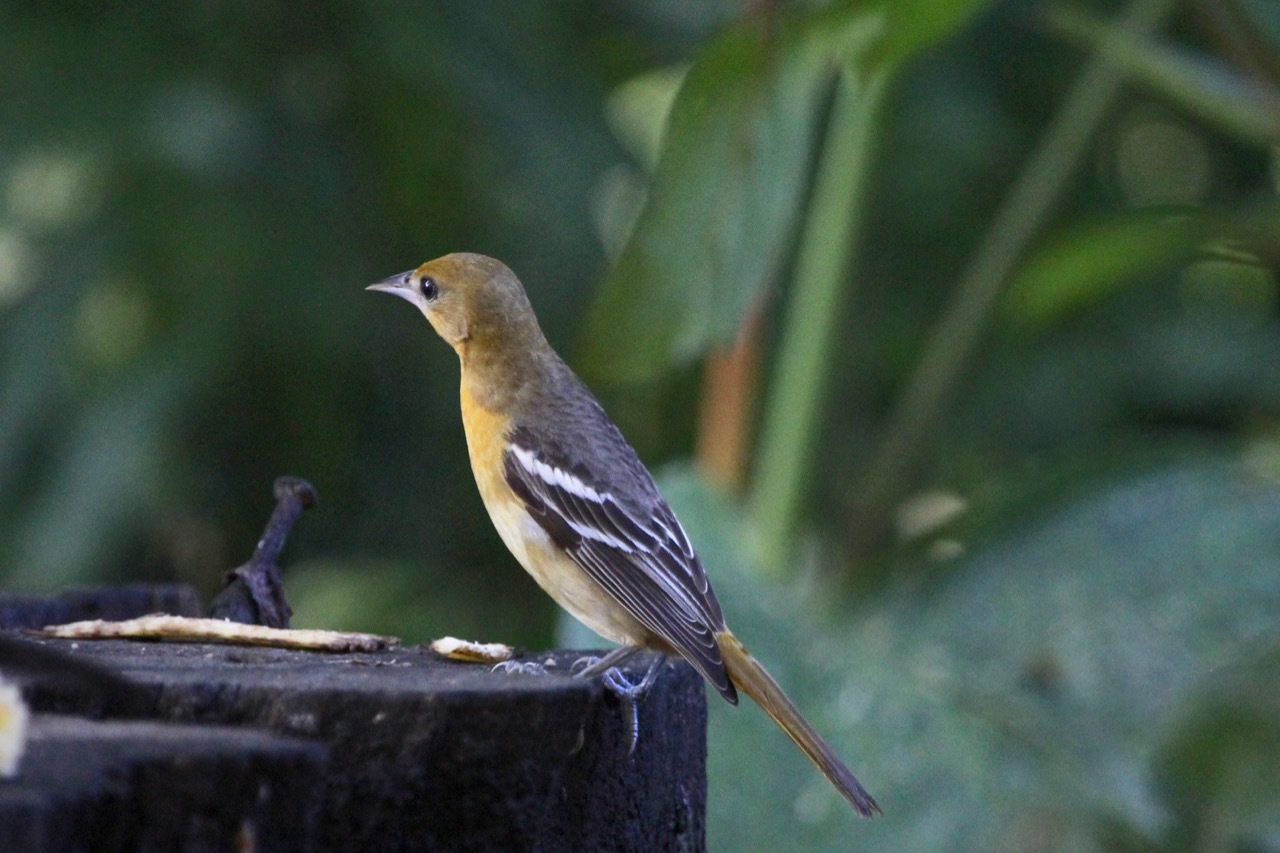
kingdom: Animalia
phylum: Chordata
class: Aves
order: Passeriformes
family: Icteridae
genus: Icterus
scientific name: Icterus galbula
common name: Baltimore oriole
